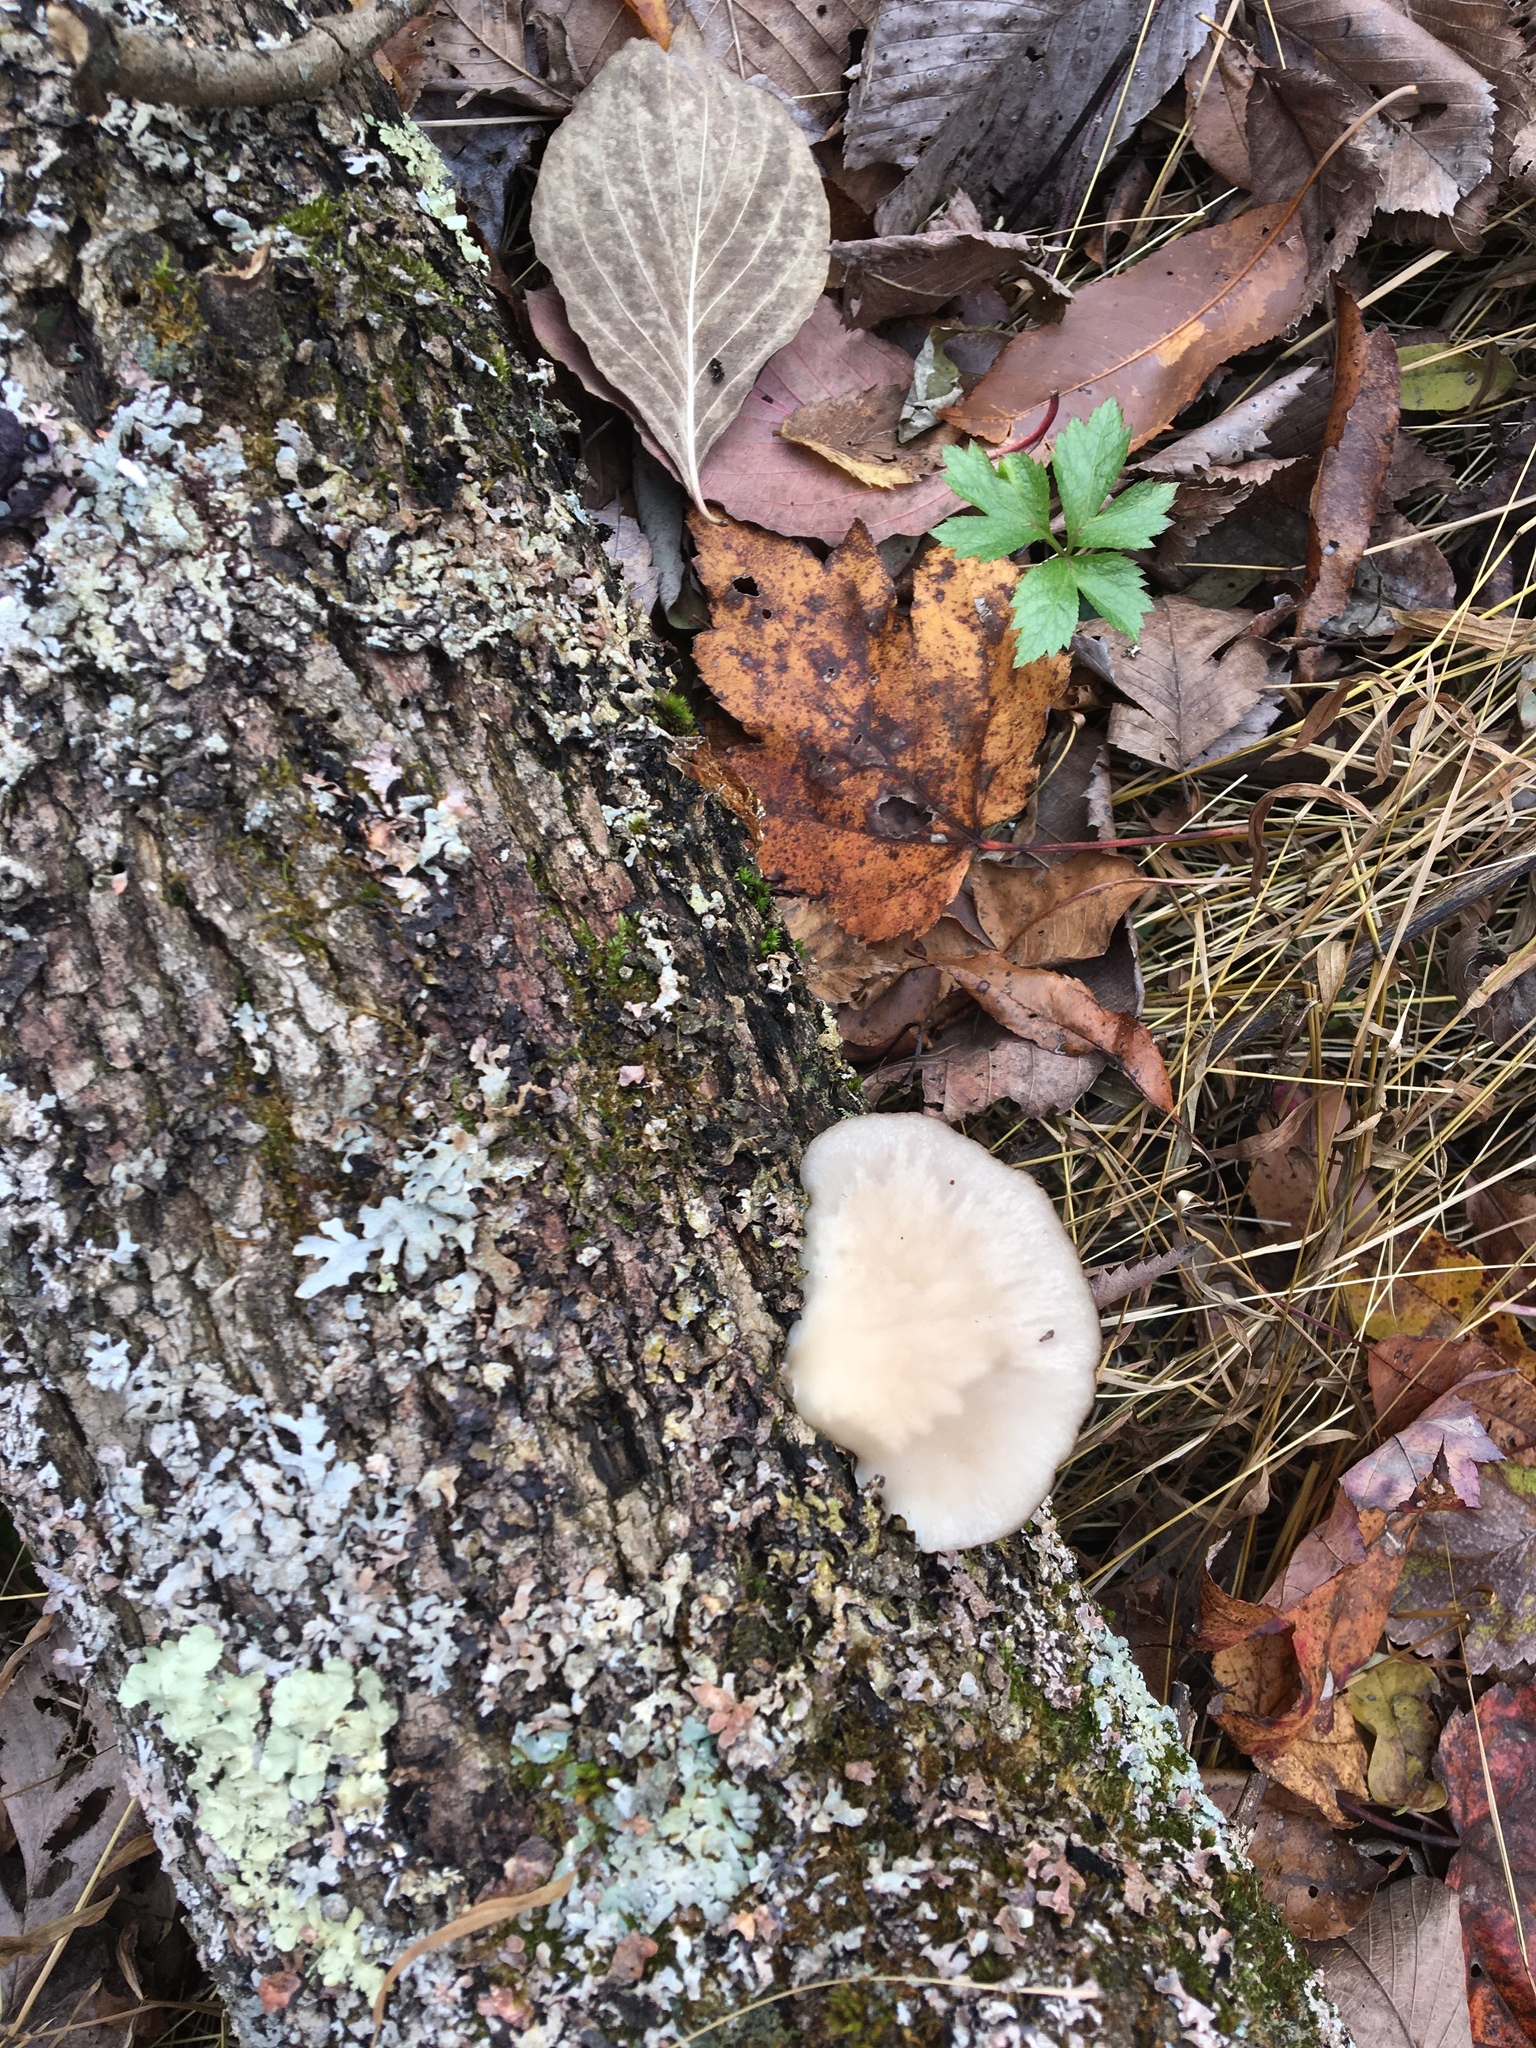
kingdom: Fungi
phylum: Basidiomycota
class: Agaricomycetes
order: Agaricales
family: Pleurotaceae
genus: Pleurotus
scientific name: Pleurotus ostreatus
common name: Oyster mushroom
